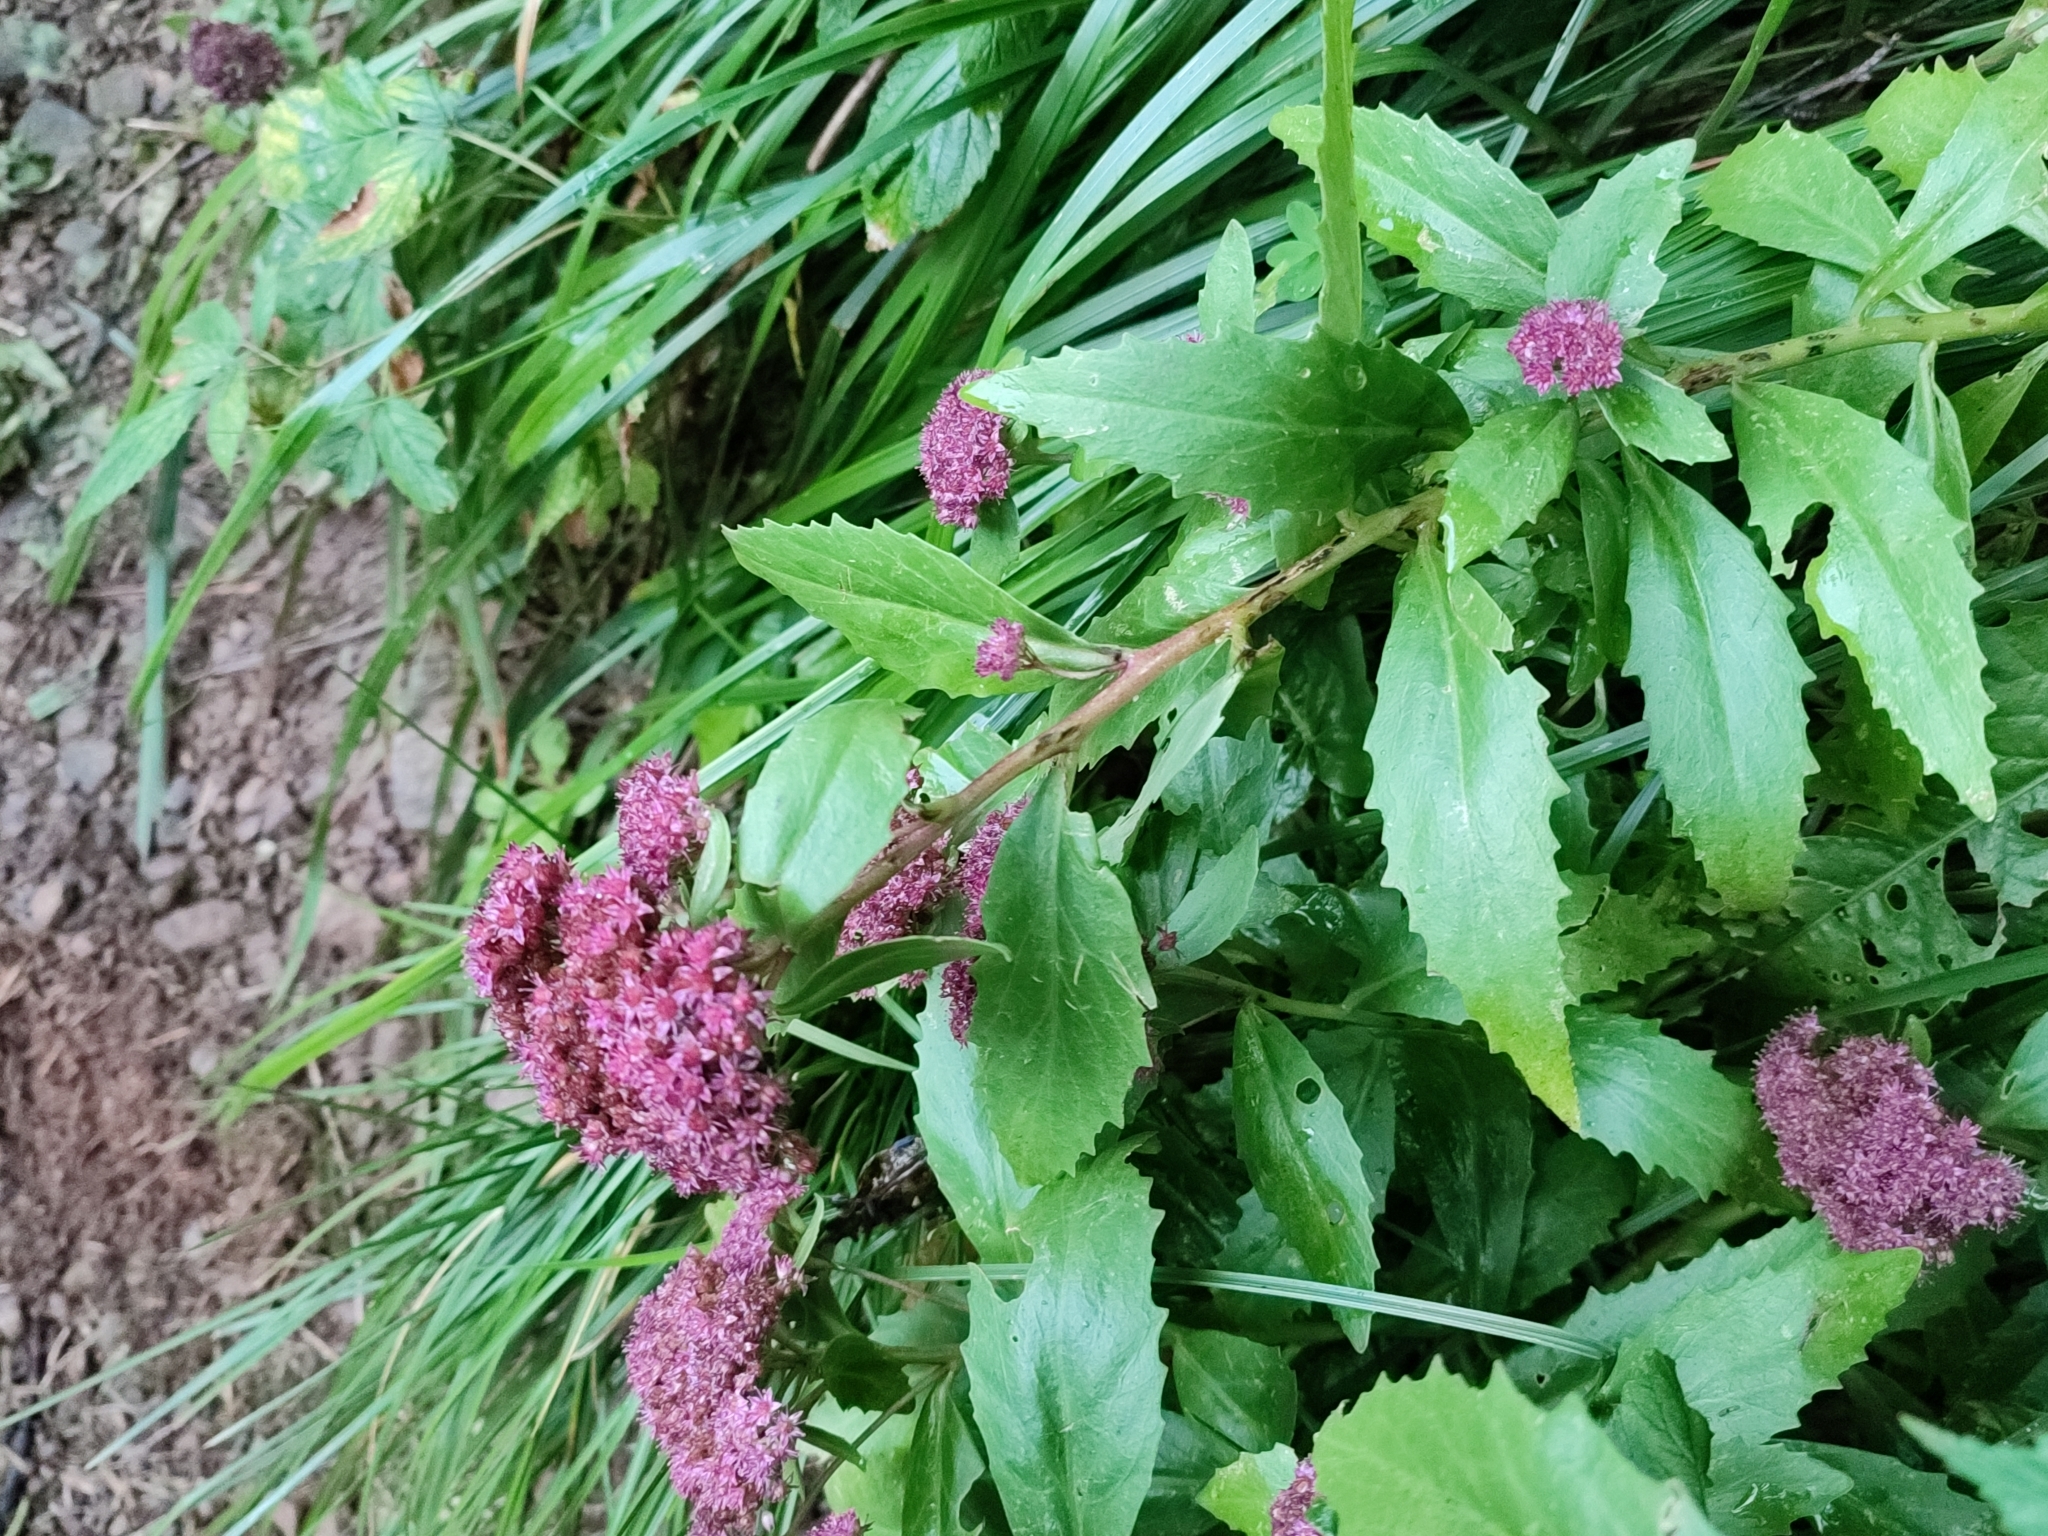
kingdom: Plantae
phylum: Tracheophyta
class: Magnoliopsida
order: Saxifragales
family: Crassulaceae
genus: Hylotelephium
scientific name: Hylotelephium vulgare
